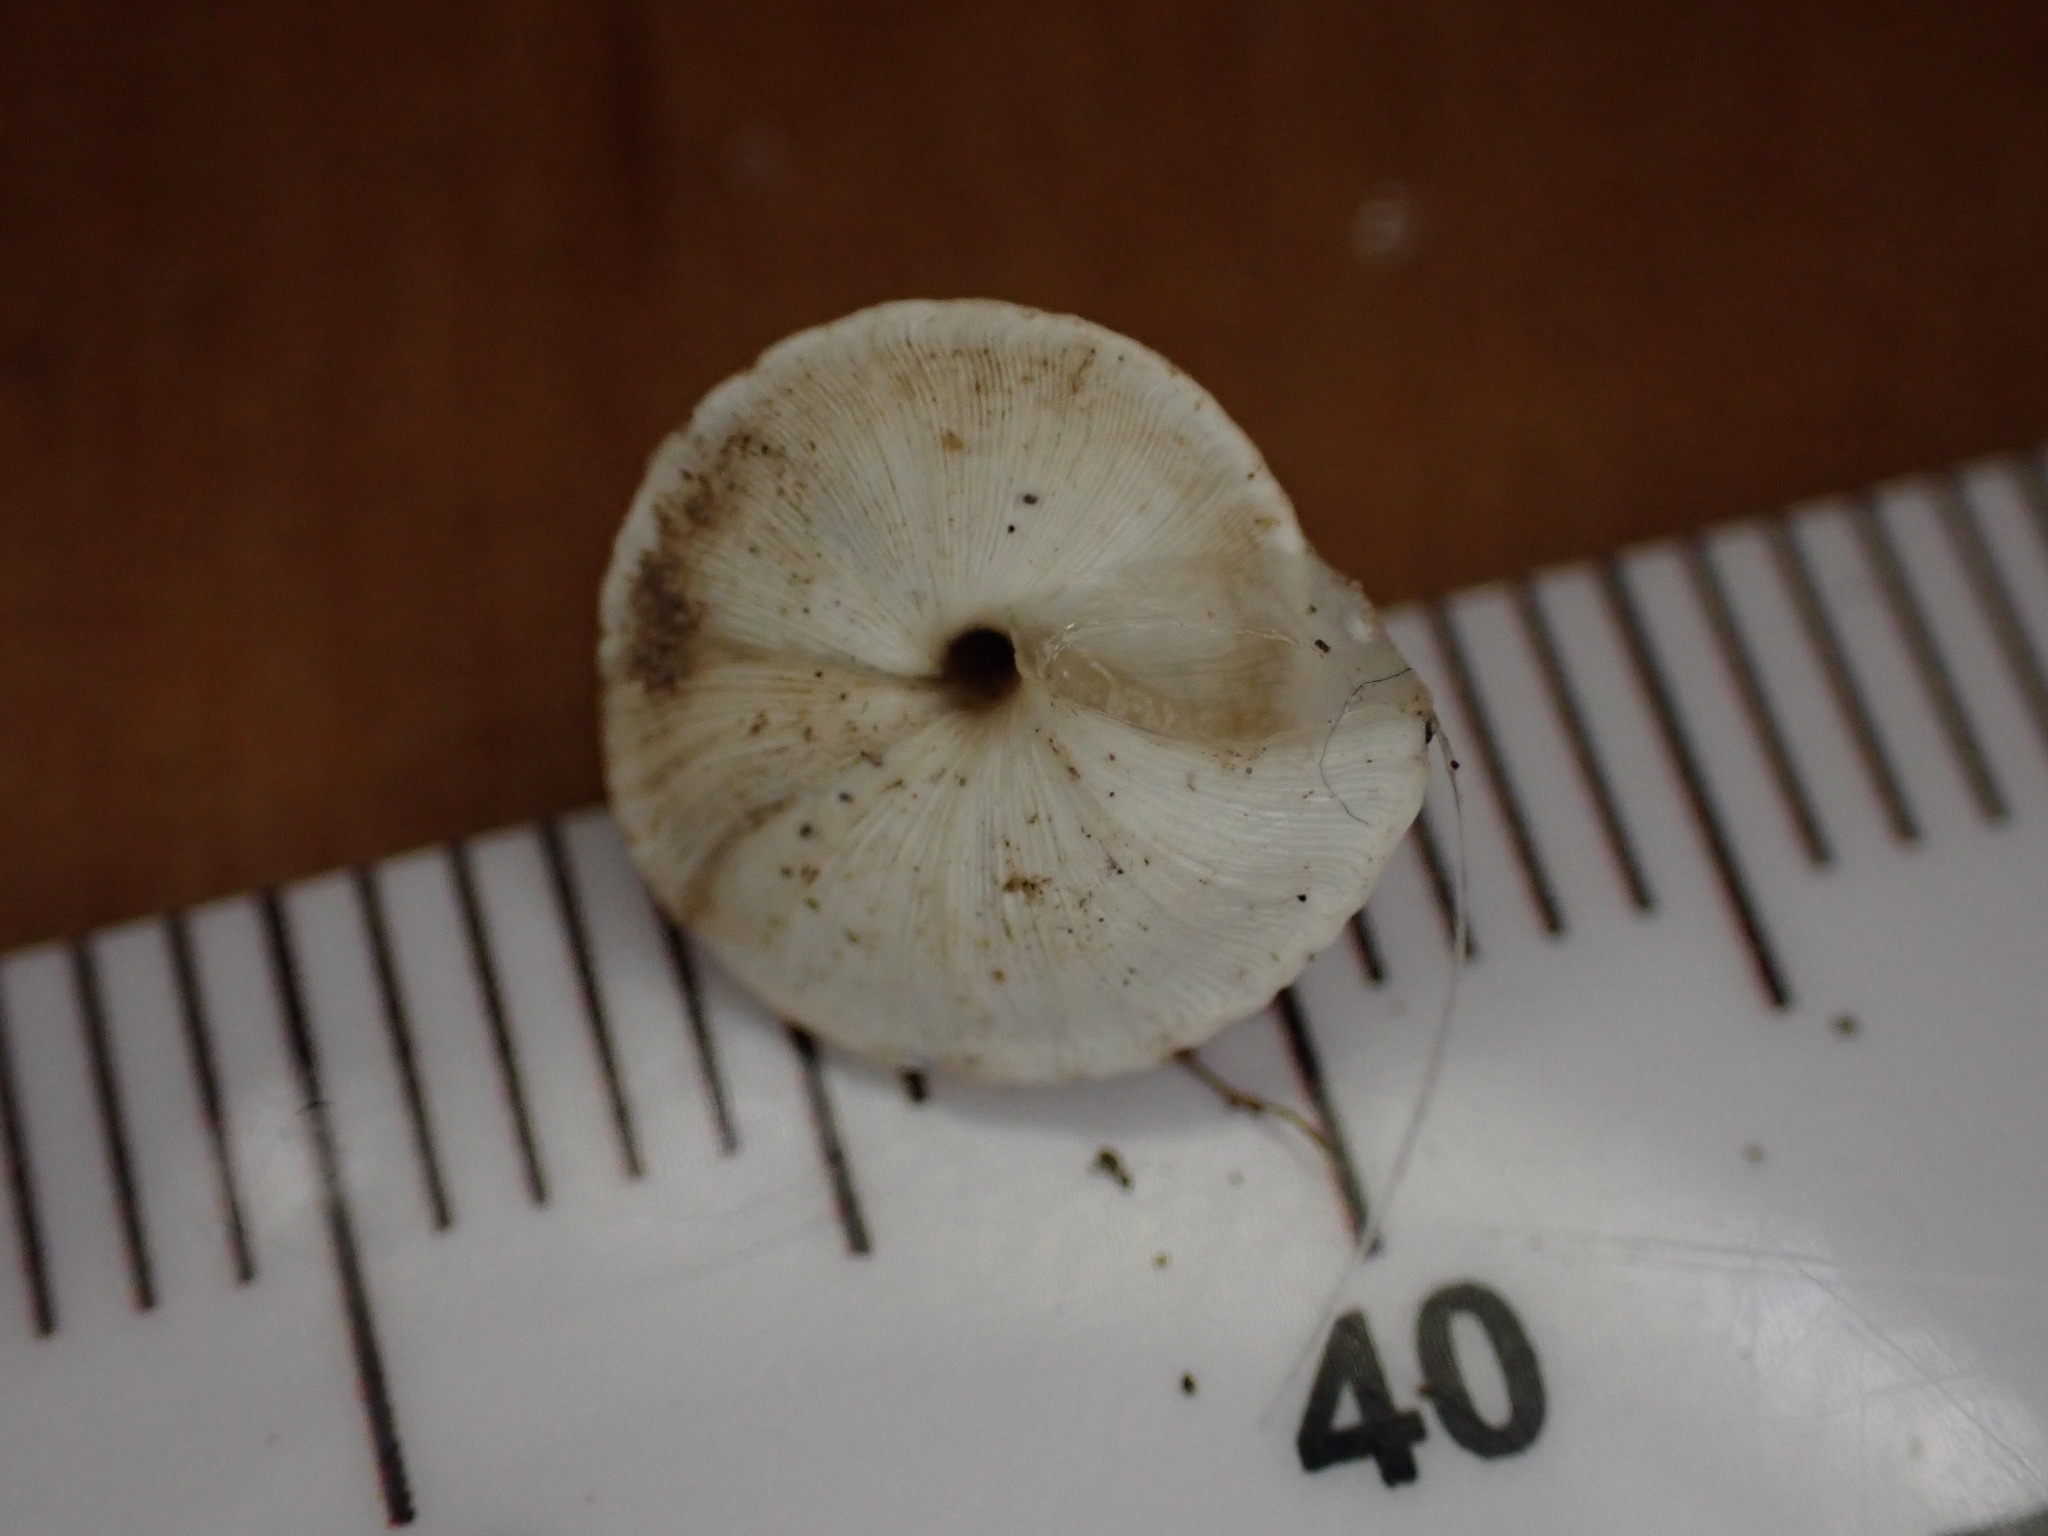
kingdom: Animalia
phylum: Mollusca
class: Gastropoda
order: Stylommatophora
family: Geomitridae
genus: Trochoidea
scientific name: Trochoidea elegans
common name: Elegant helicellid
